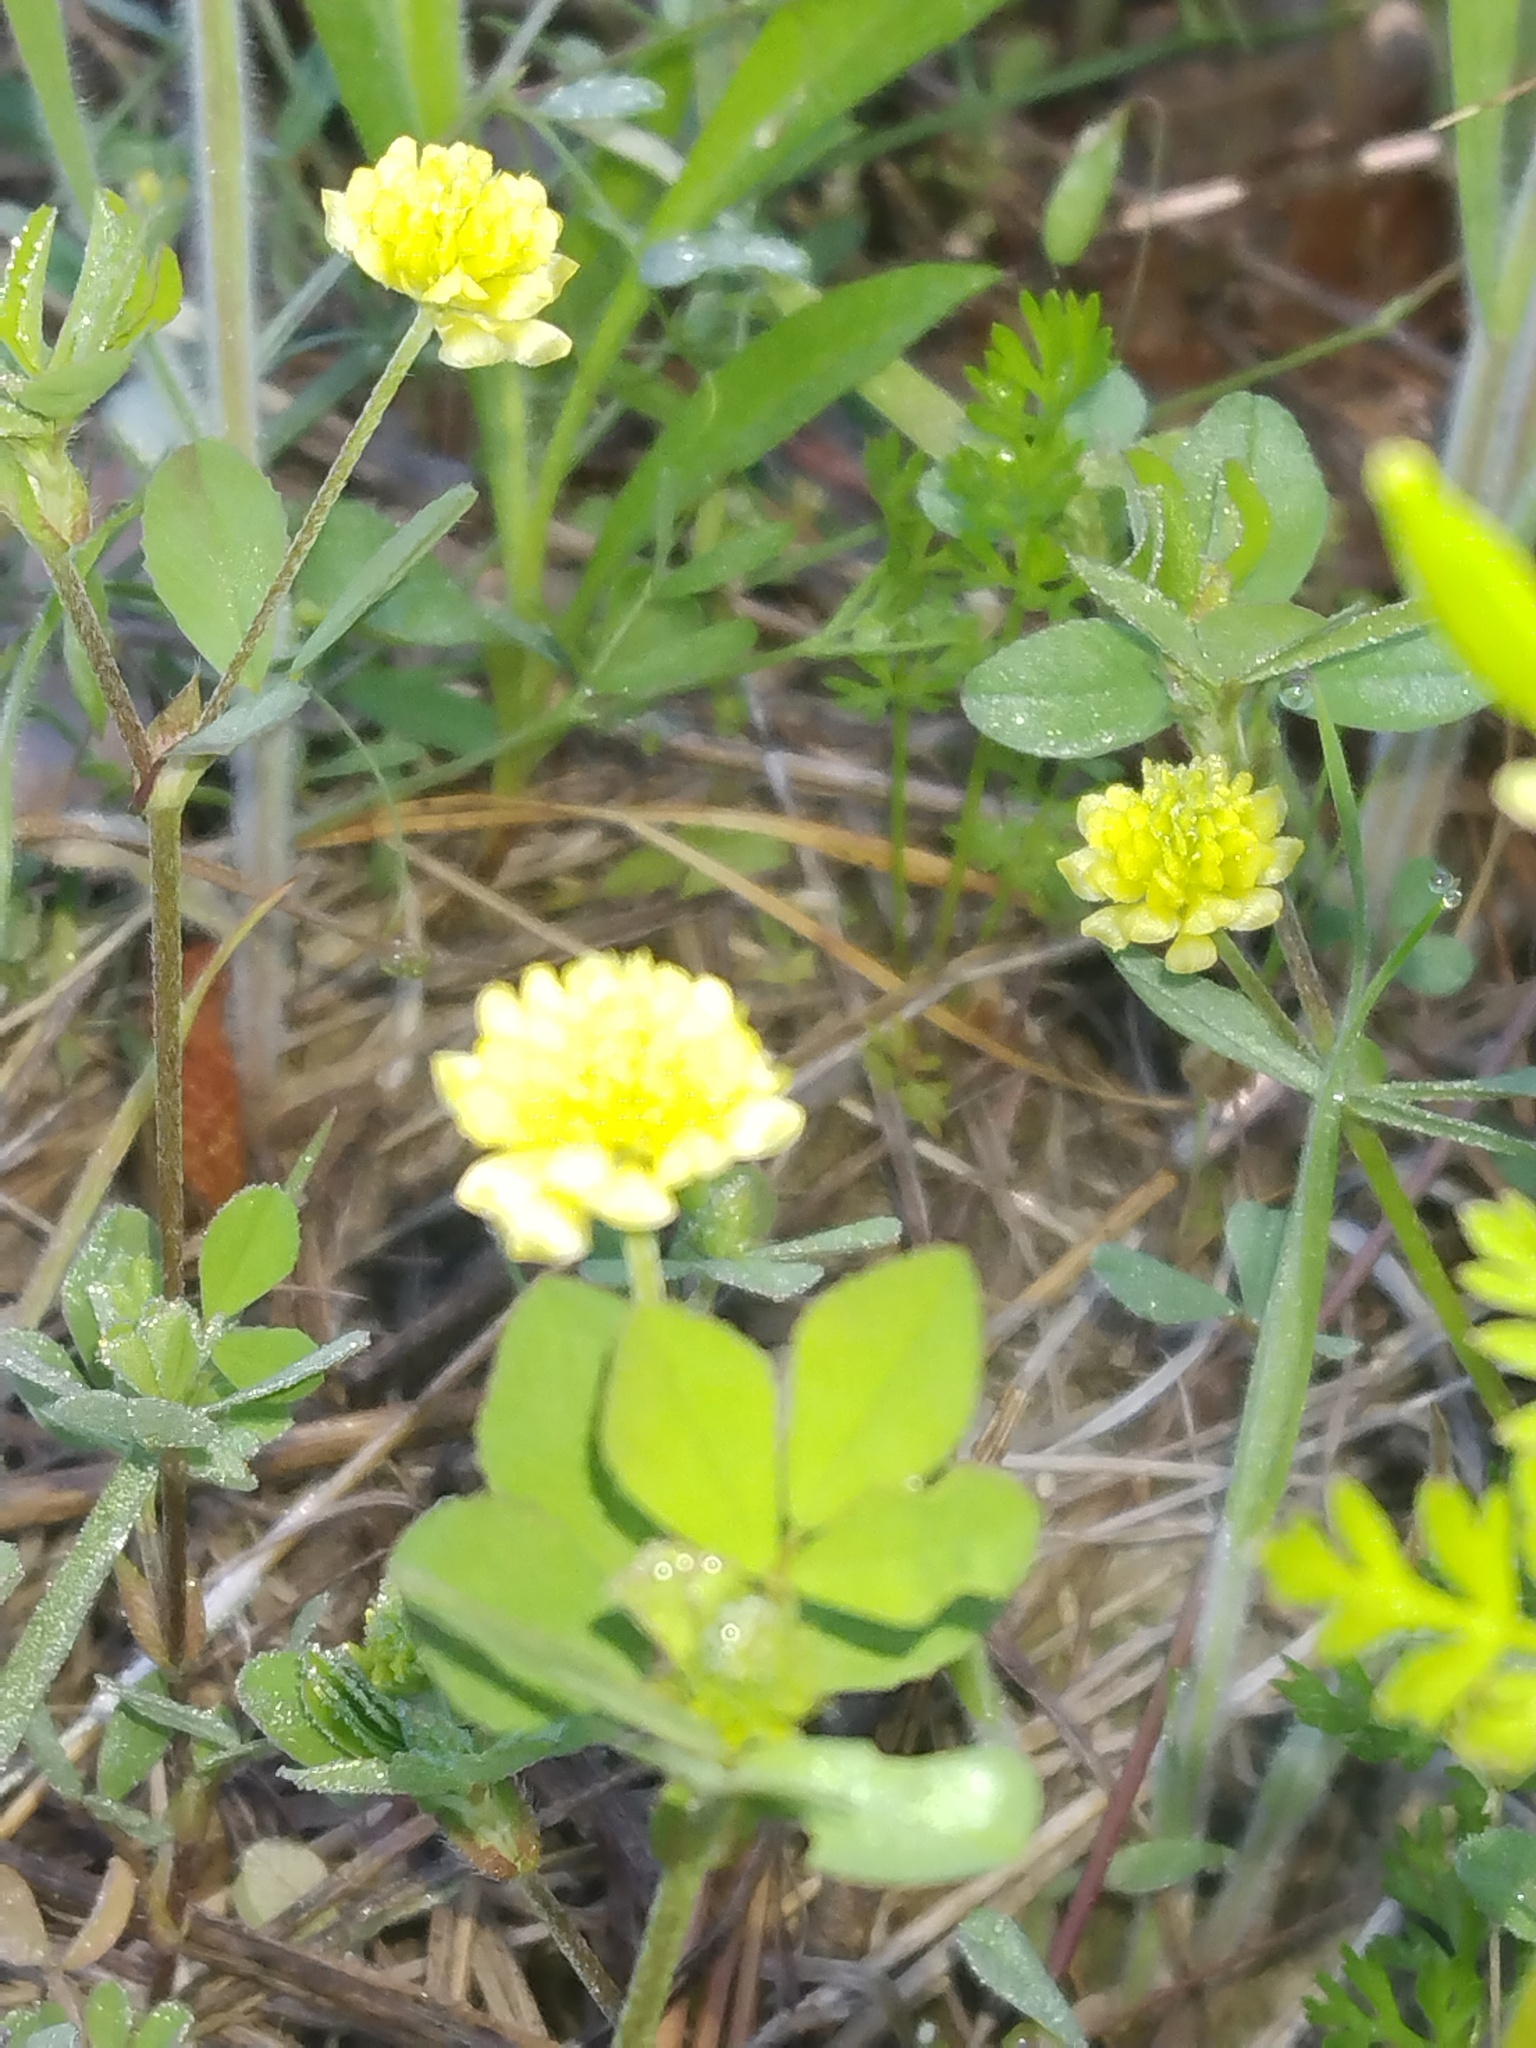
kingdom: Plantae
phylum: Tracheophyta
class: Magnoliopsida
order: Fabales
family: Fabaceae
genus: Trifolium
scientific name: Trifolium campestre
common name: Field clover
